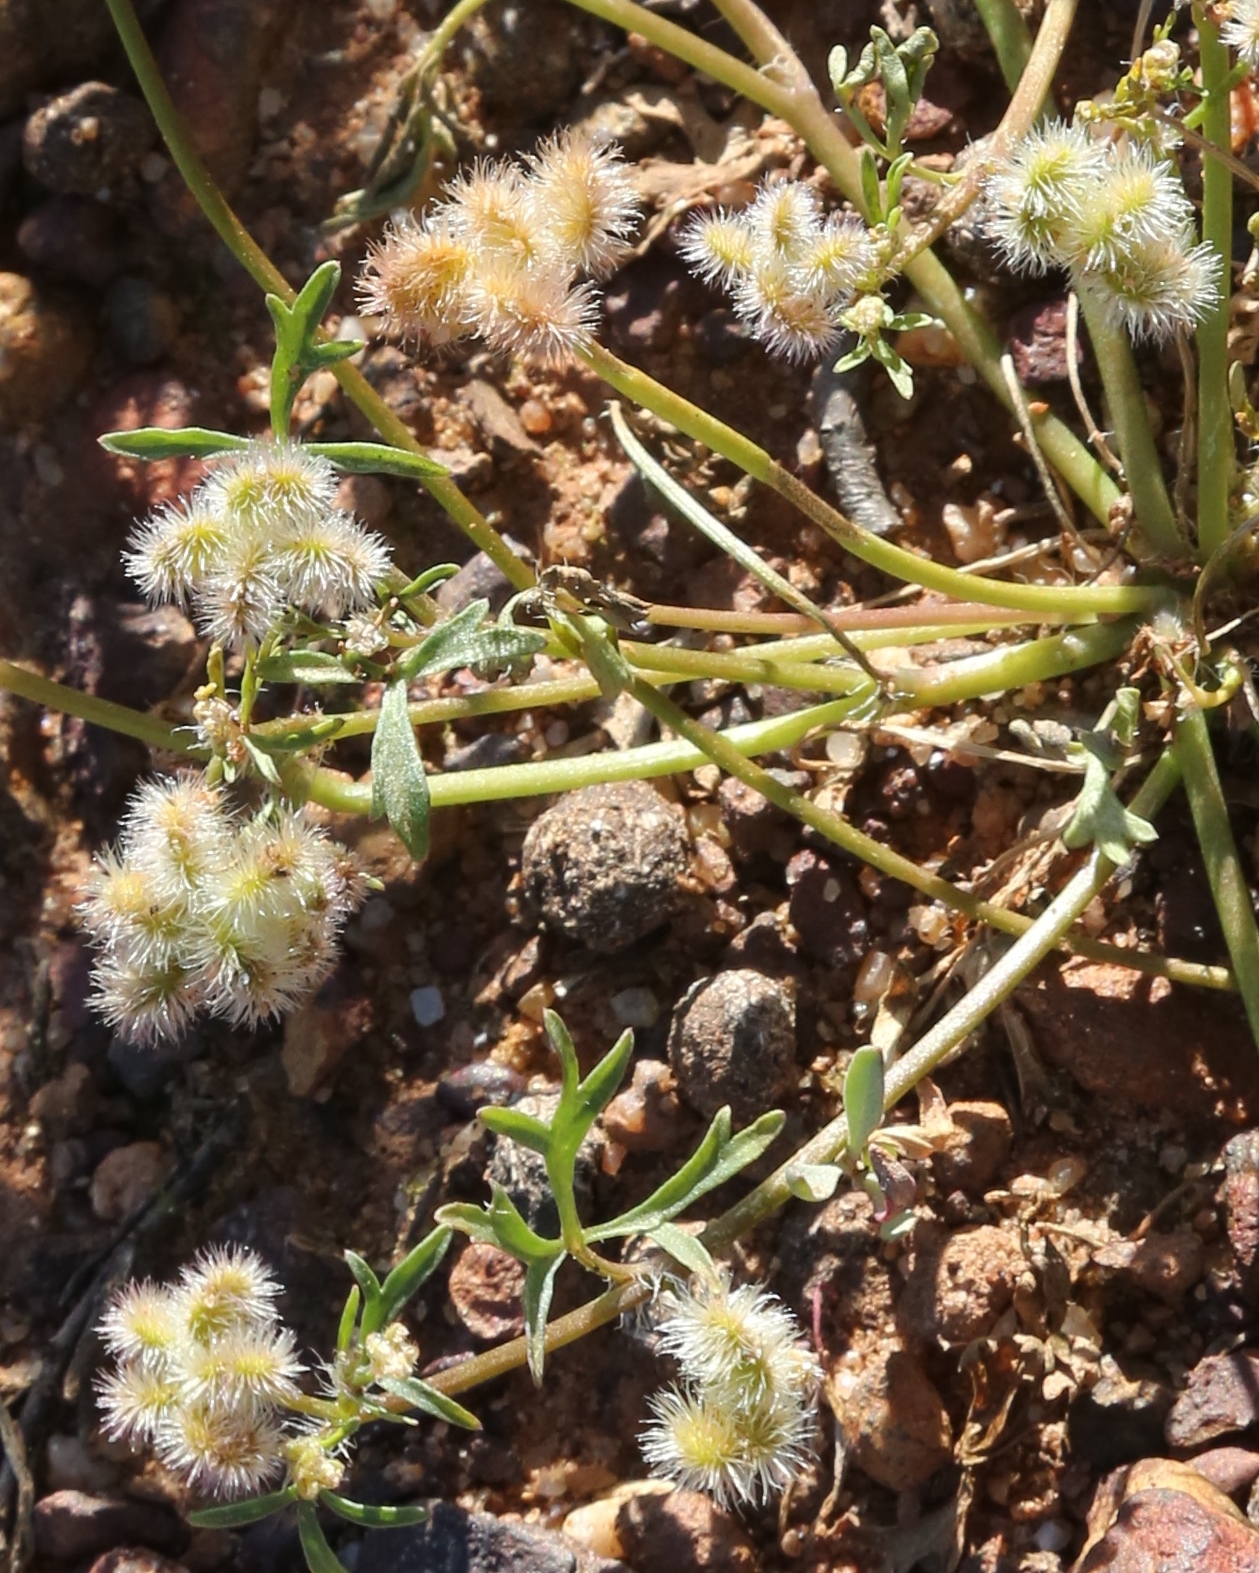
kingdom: Plantae
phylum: Tracheophyta
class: Magnoliopsida
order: Apiales
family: Araliaceae
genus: Trachymene
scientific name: Trachymene cyanopetala
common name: Purple trachymene
